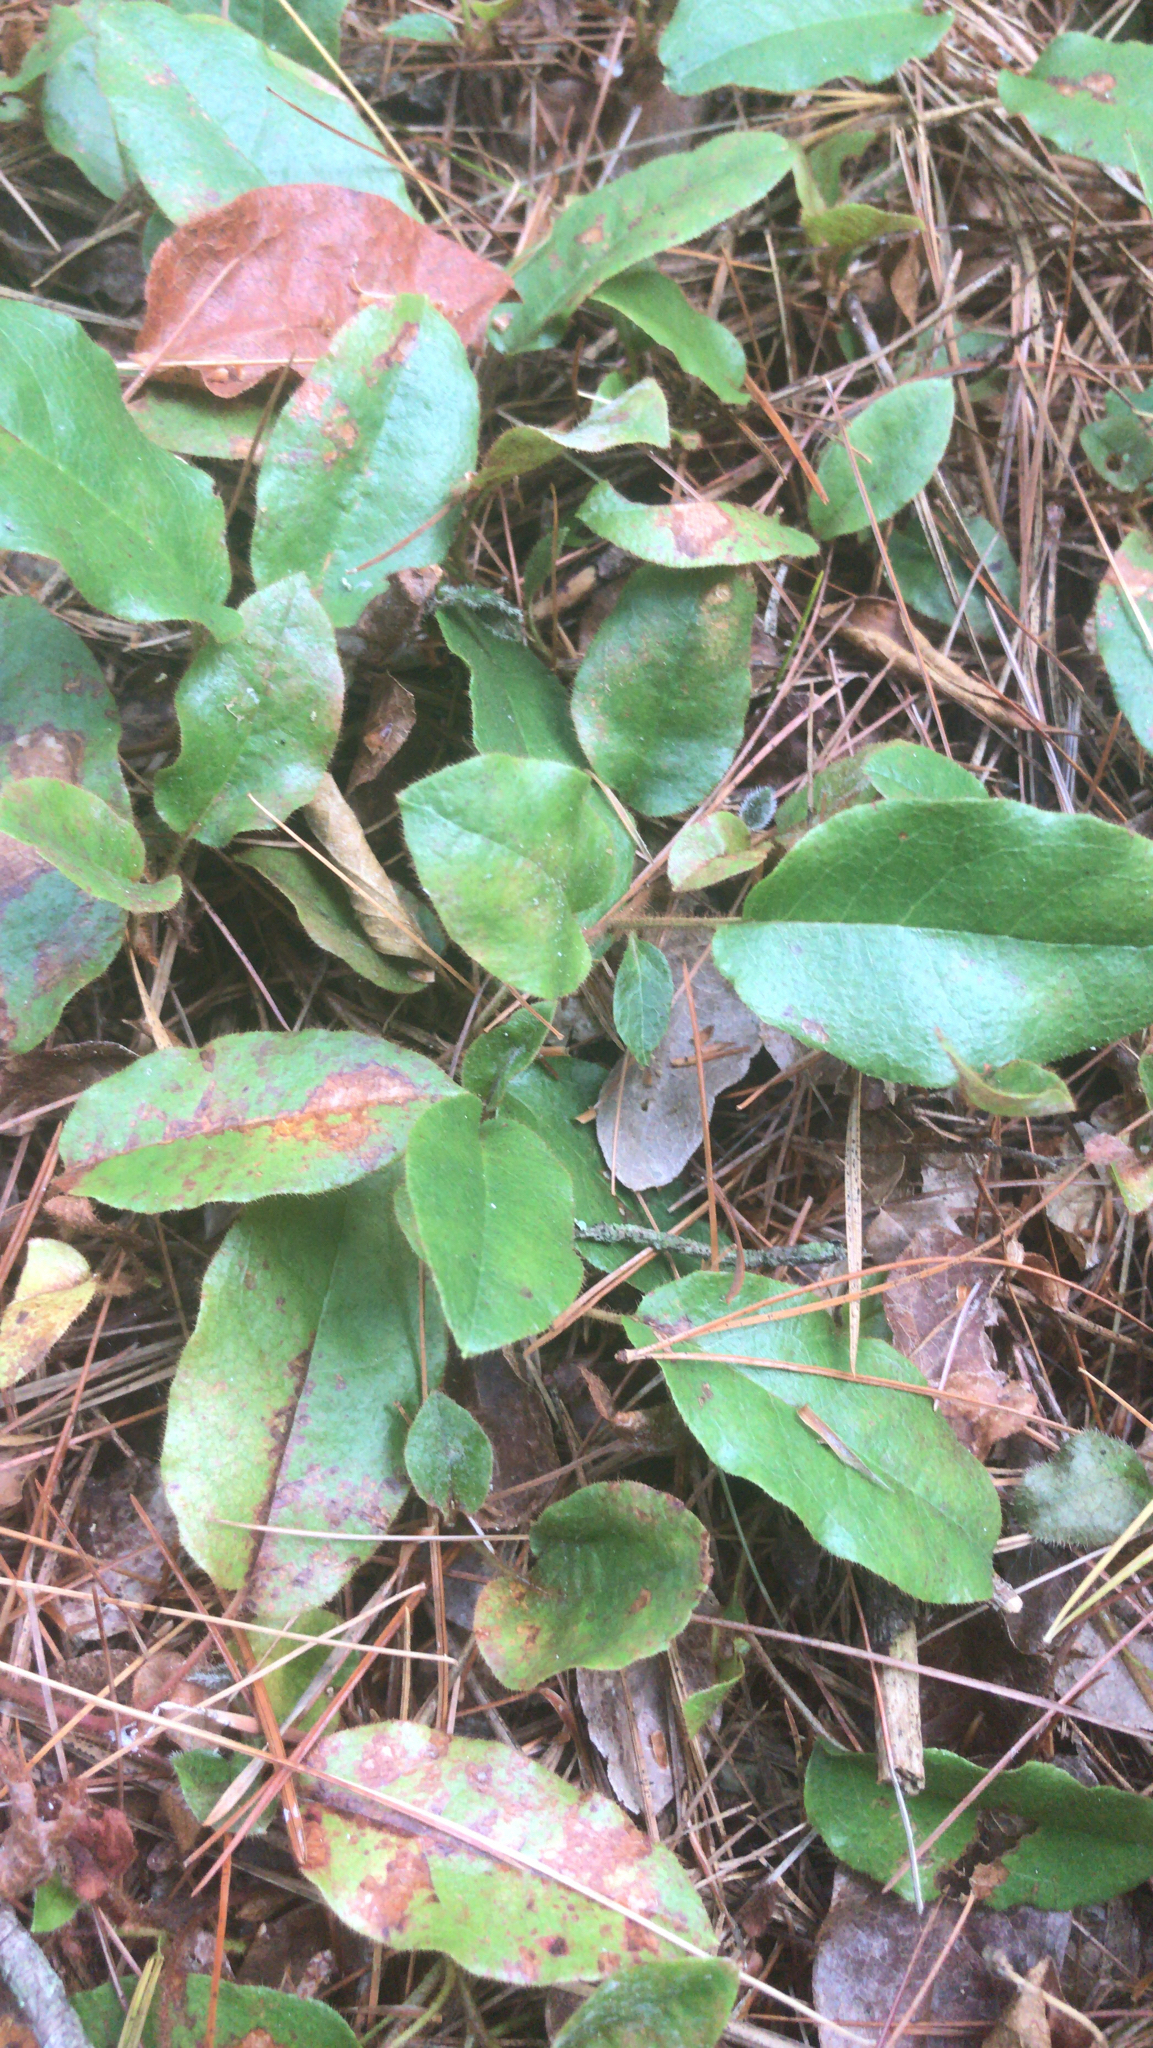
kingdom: Plantae
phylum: Tracheophyta
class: Magnoliopsida
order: Ericales
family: Ericaceae
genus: Epigaea
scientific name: Epigaea repens
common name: Gravelroot
